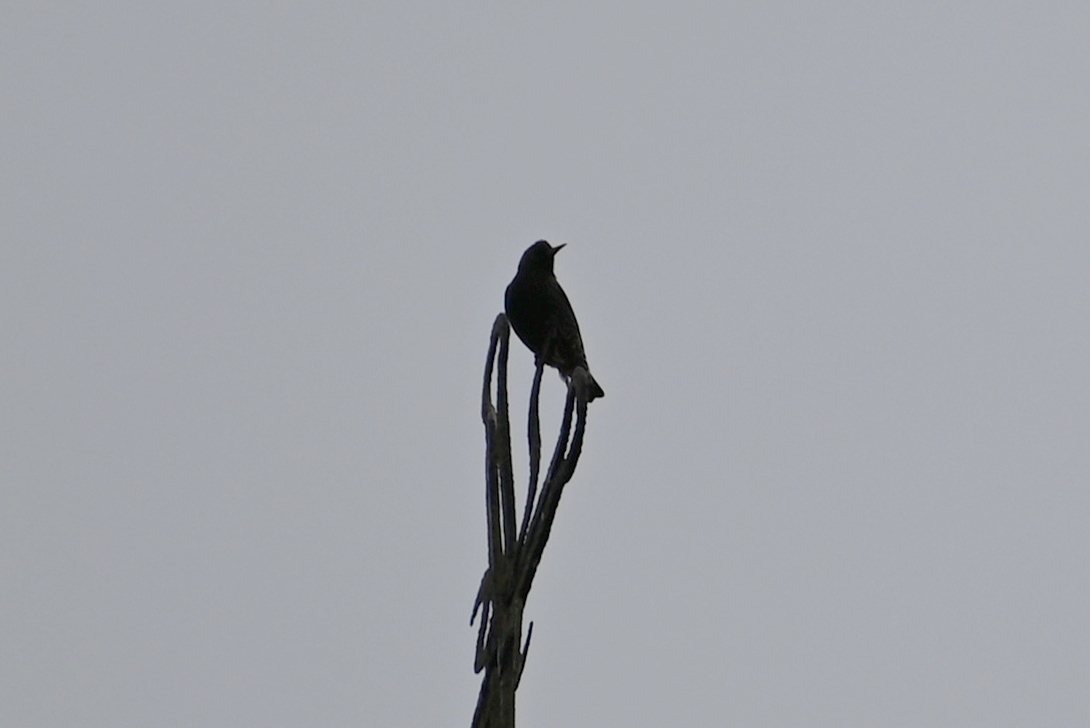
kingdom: Animalia
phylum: Chordata
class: Aves
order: Passeriformes
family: Sturnidae
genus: Sturnus
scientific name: Sturnus vulgaris
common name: Common starling
